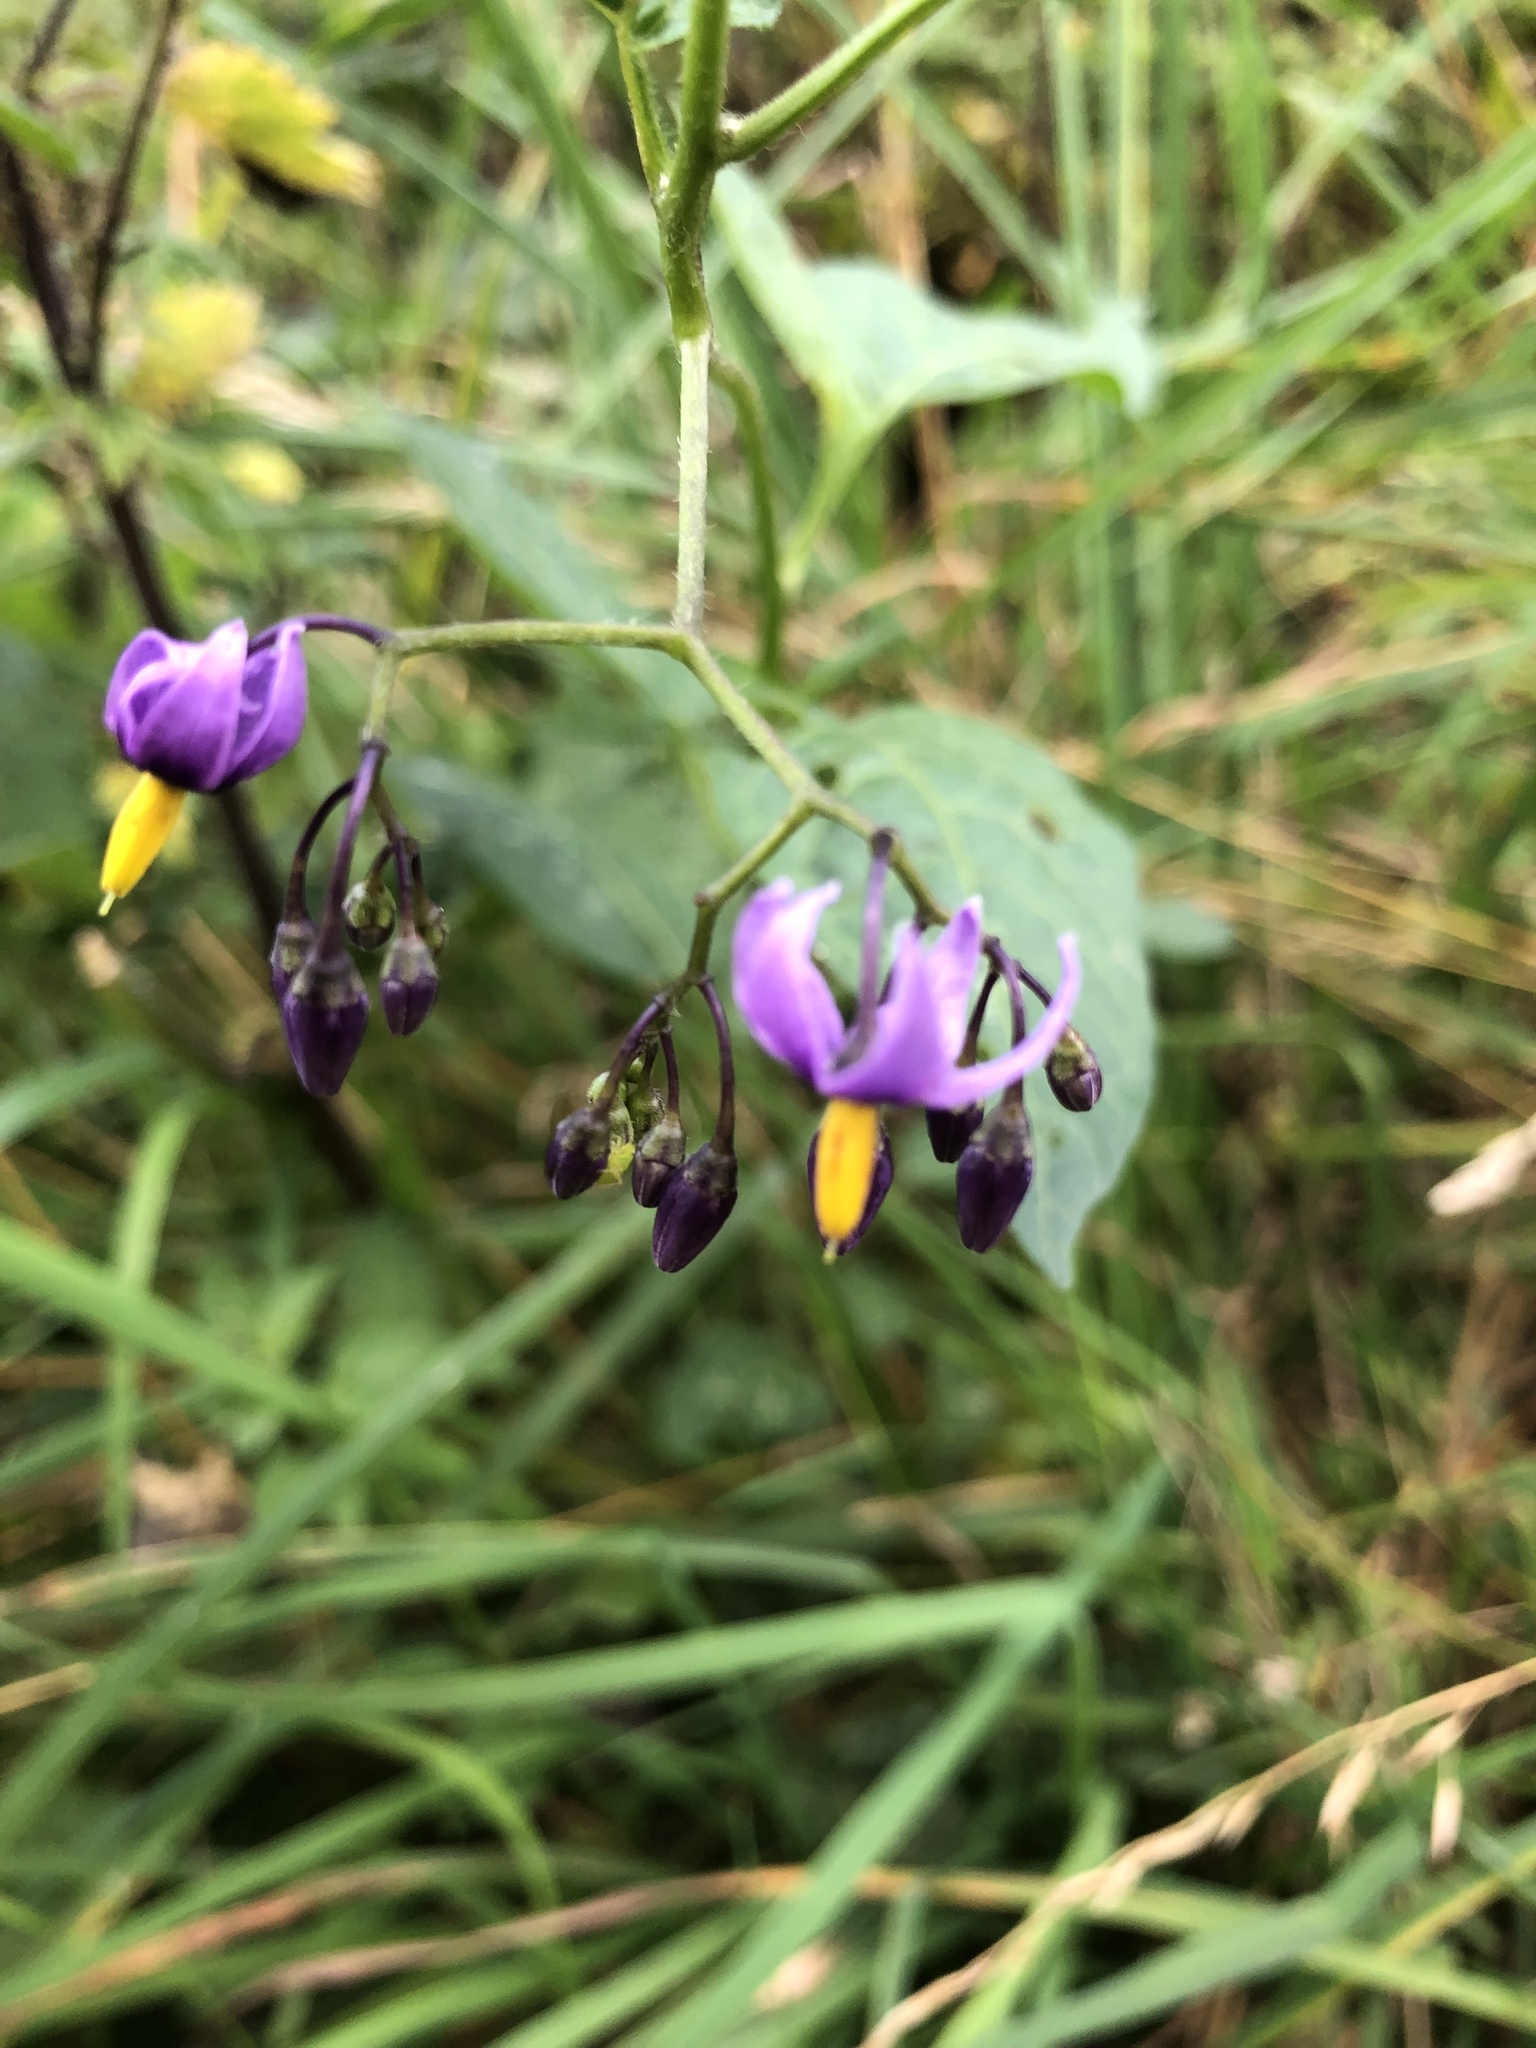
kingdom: Plantae
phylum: Tracheophyta
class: Magnoliopsida
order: Solanales
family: Solanaceae
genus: Solanum
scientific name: Solanum dulcamara
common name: Climbing nightshade
